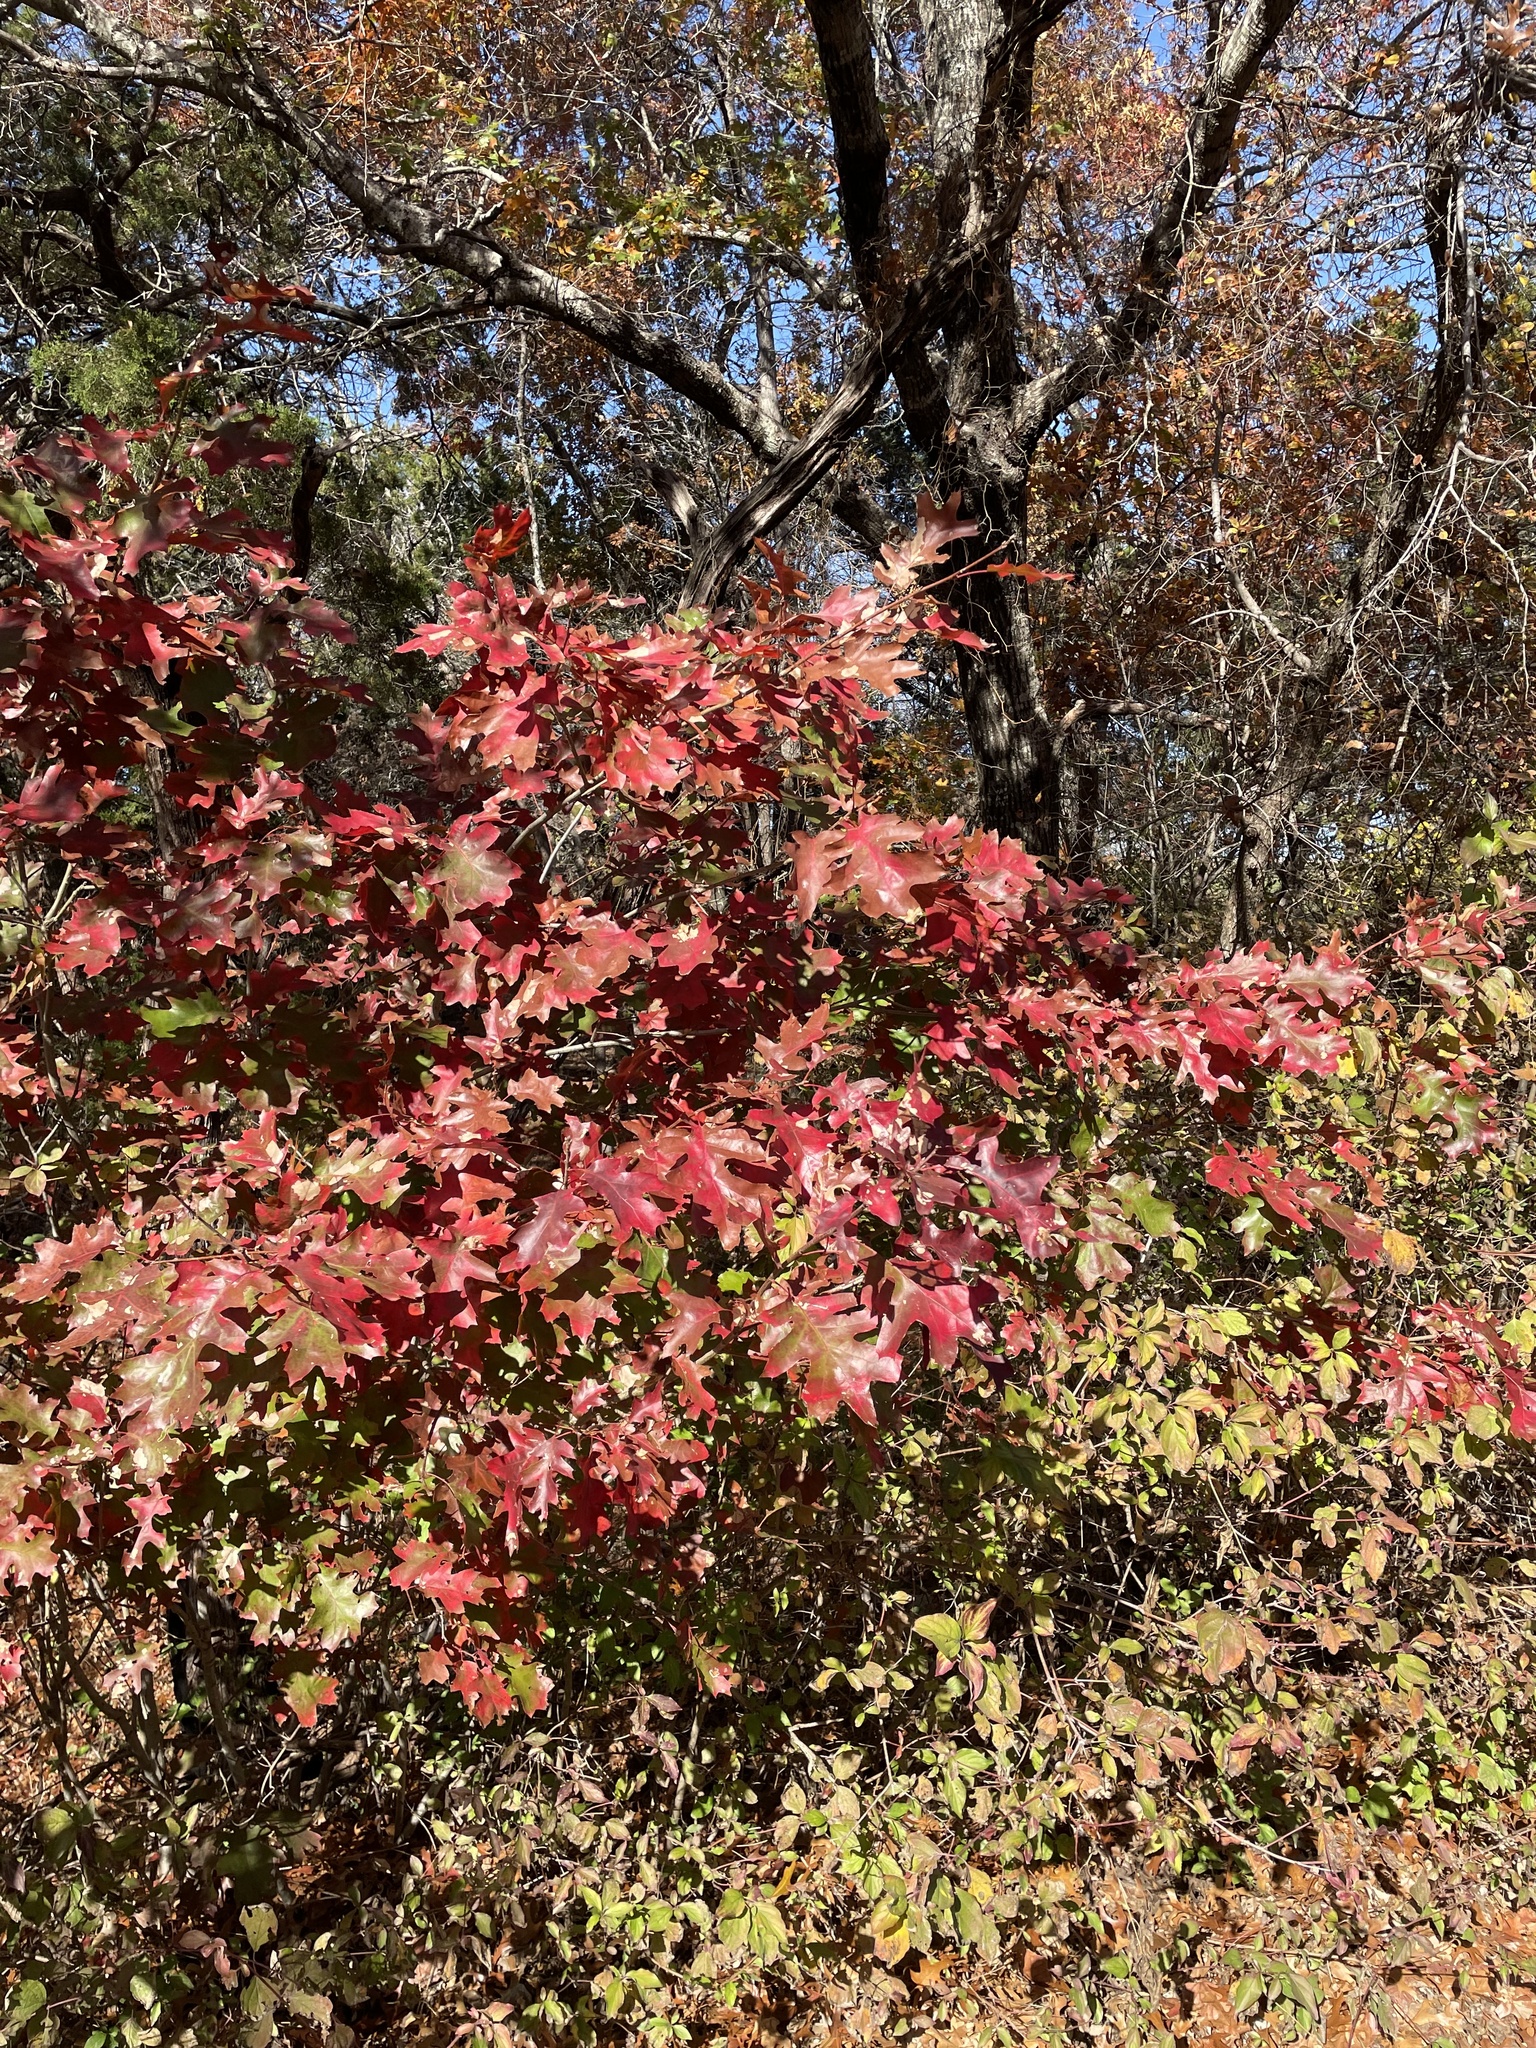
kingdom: Plantae
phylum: Tracheophyta
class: Magnoliopsida
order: Fagales
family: Fagaceae
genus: Quercus
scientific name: Quercus shumardii
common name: Shumard oak
